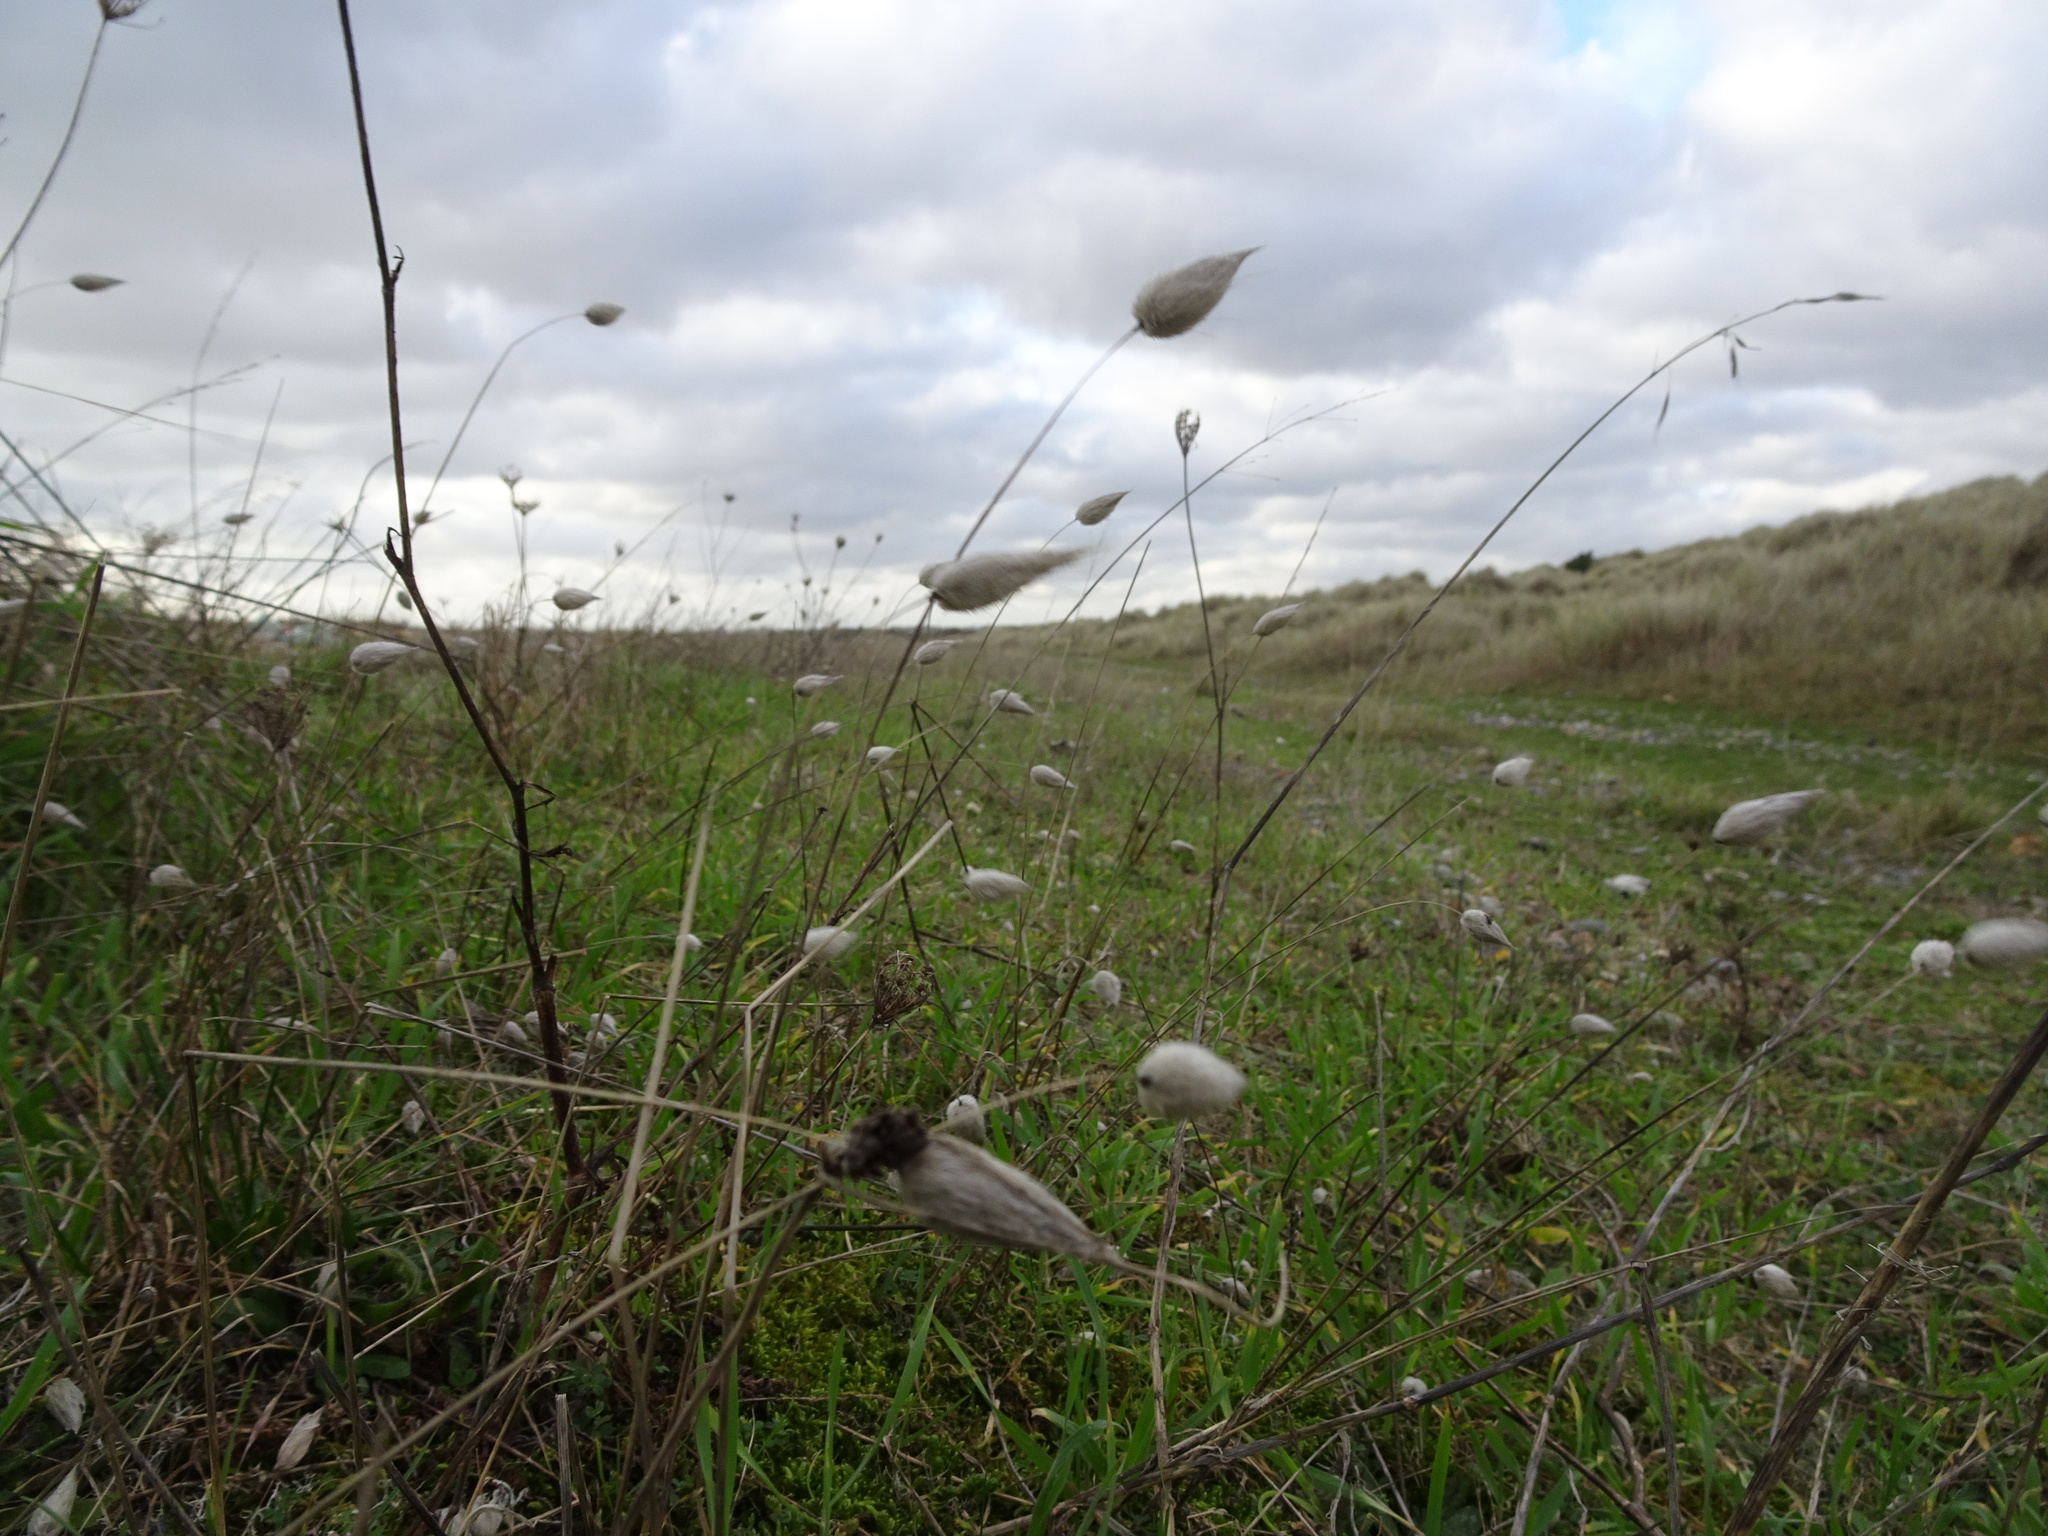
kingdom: Plantae
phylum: Tracheophyta
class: Liliopsida
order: Poales
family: Poaceae
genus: Lagurus
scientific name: Lagurus ovatus
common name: Hare's-tail
